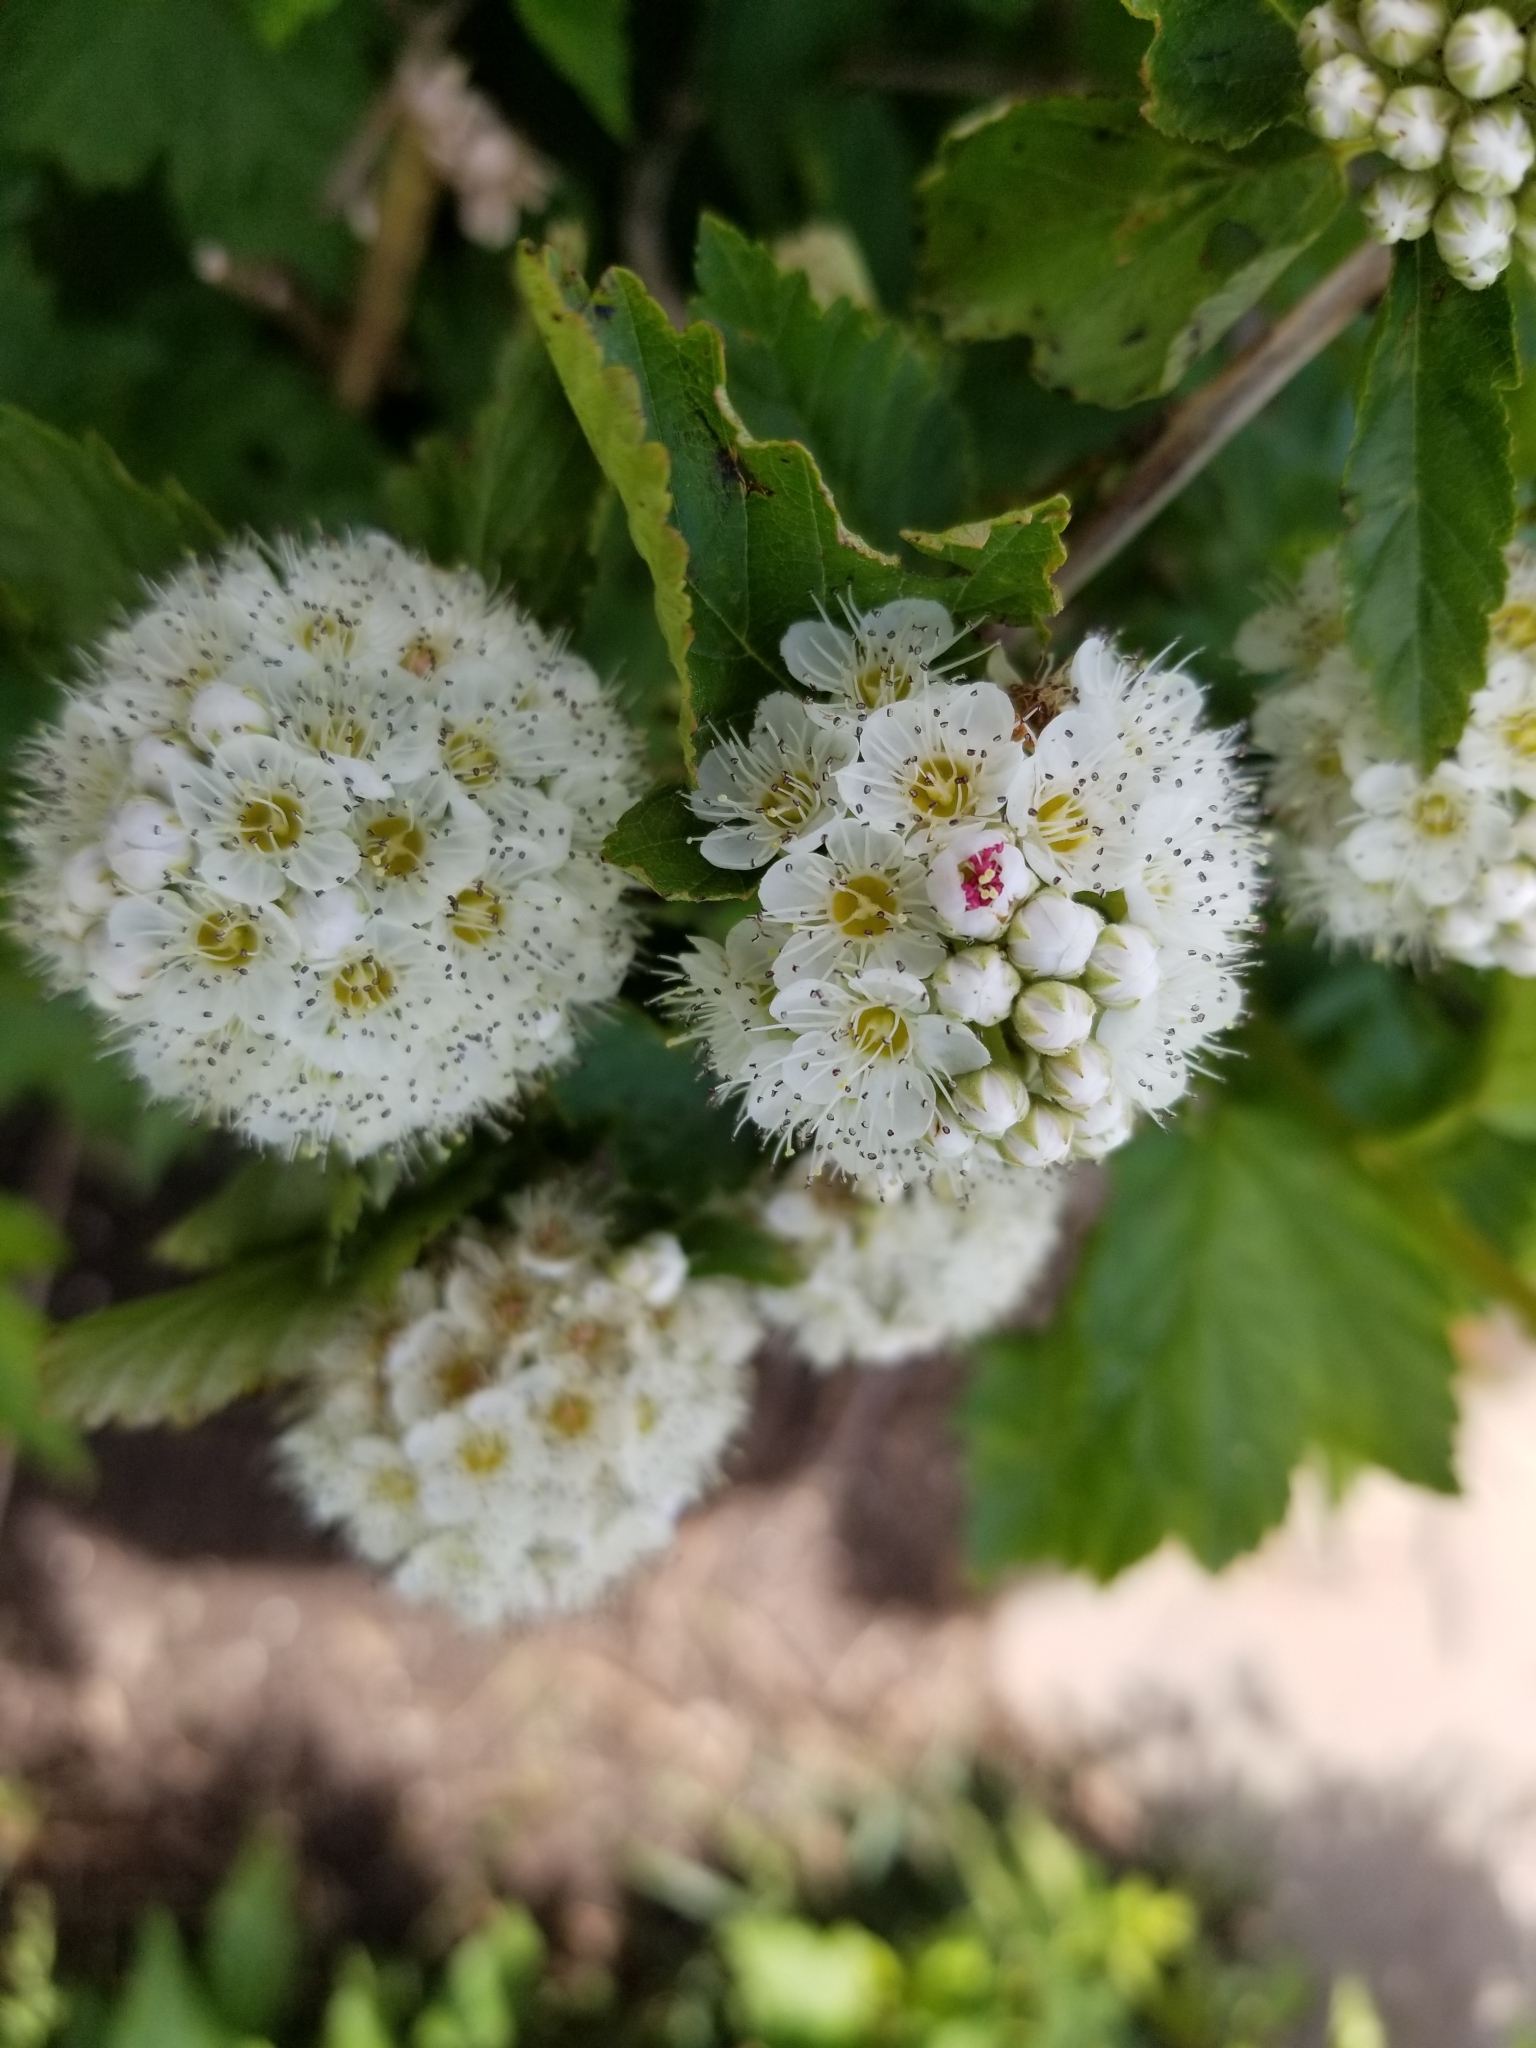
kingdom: Plantae
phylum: Tracheophyta
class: Magnoliopsida
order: Rosales
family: Rosaceae
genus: Physocarpus
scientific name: Physocarpus opulifolius
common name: Ninebark
